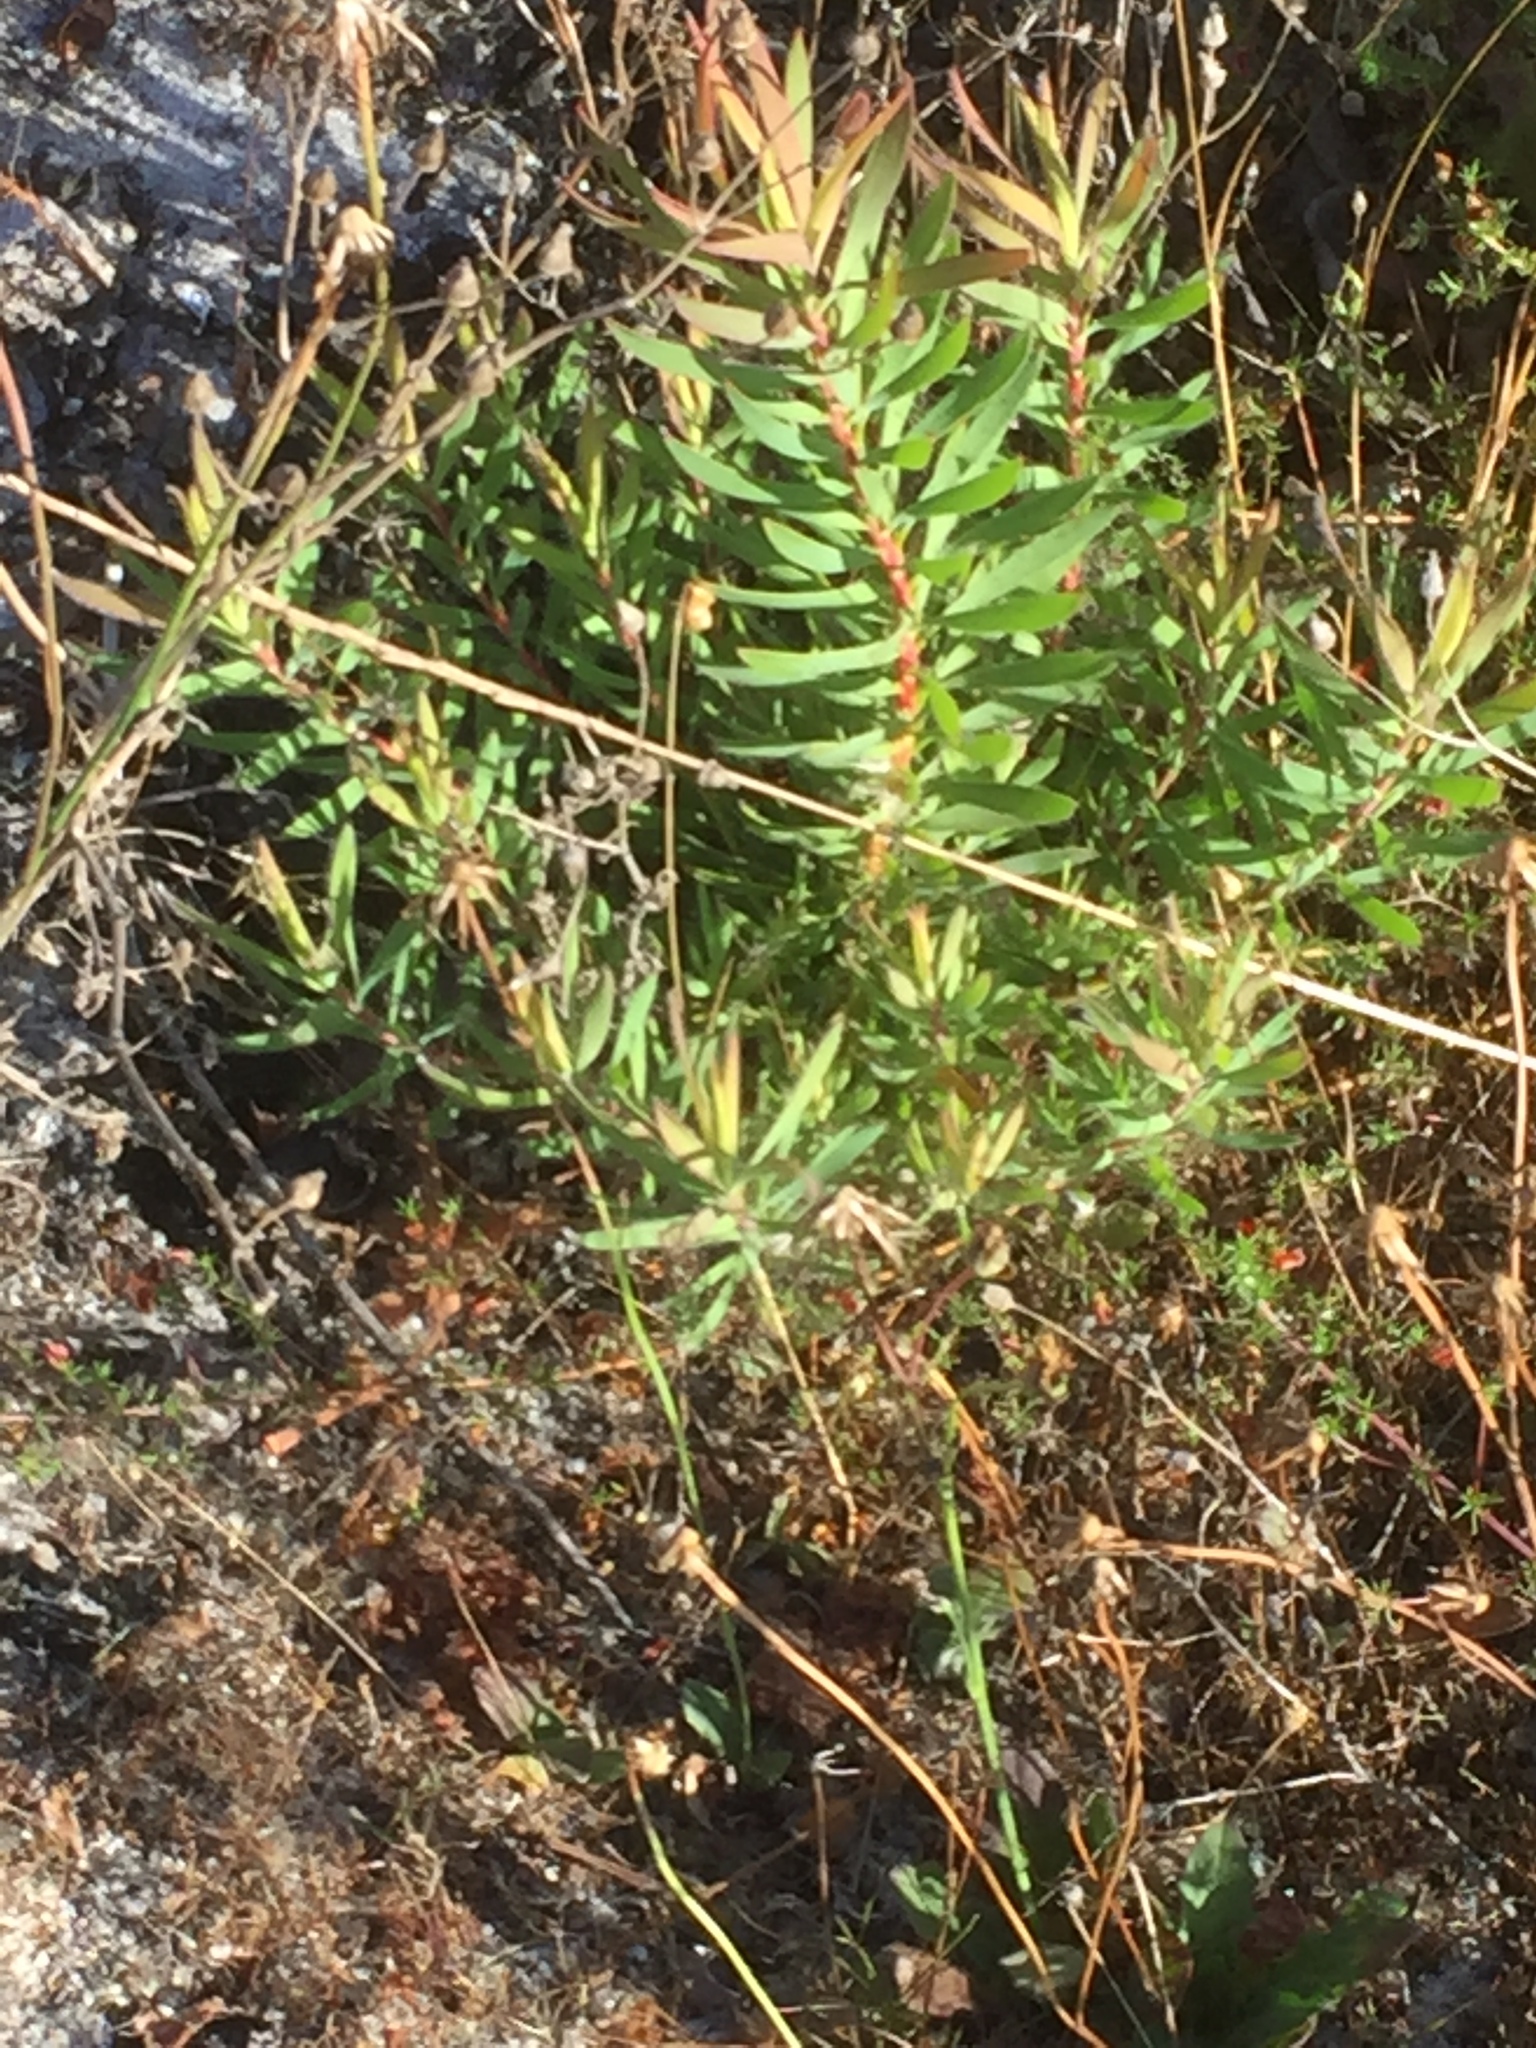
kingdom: Plantae
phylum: Tracheophyta
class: Magnoliopsida
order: Proteales
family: Proteaceae
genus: Leucadendron
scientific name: Leucadendron salignum
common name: Common sunshine conebush
